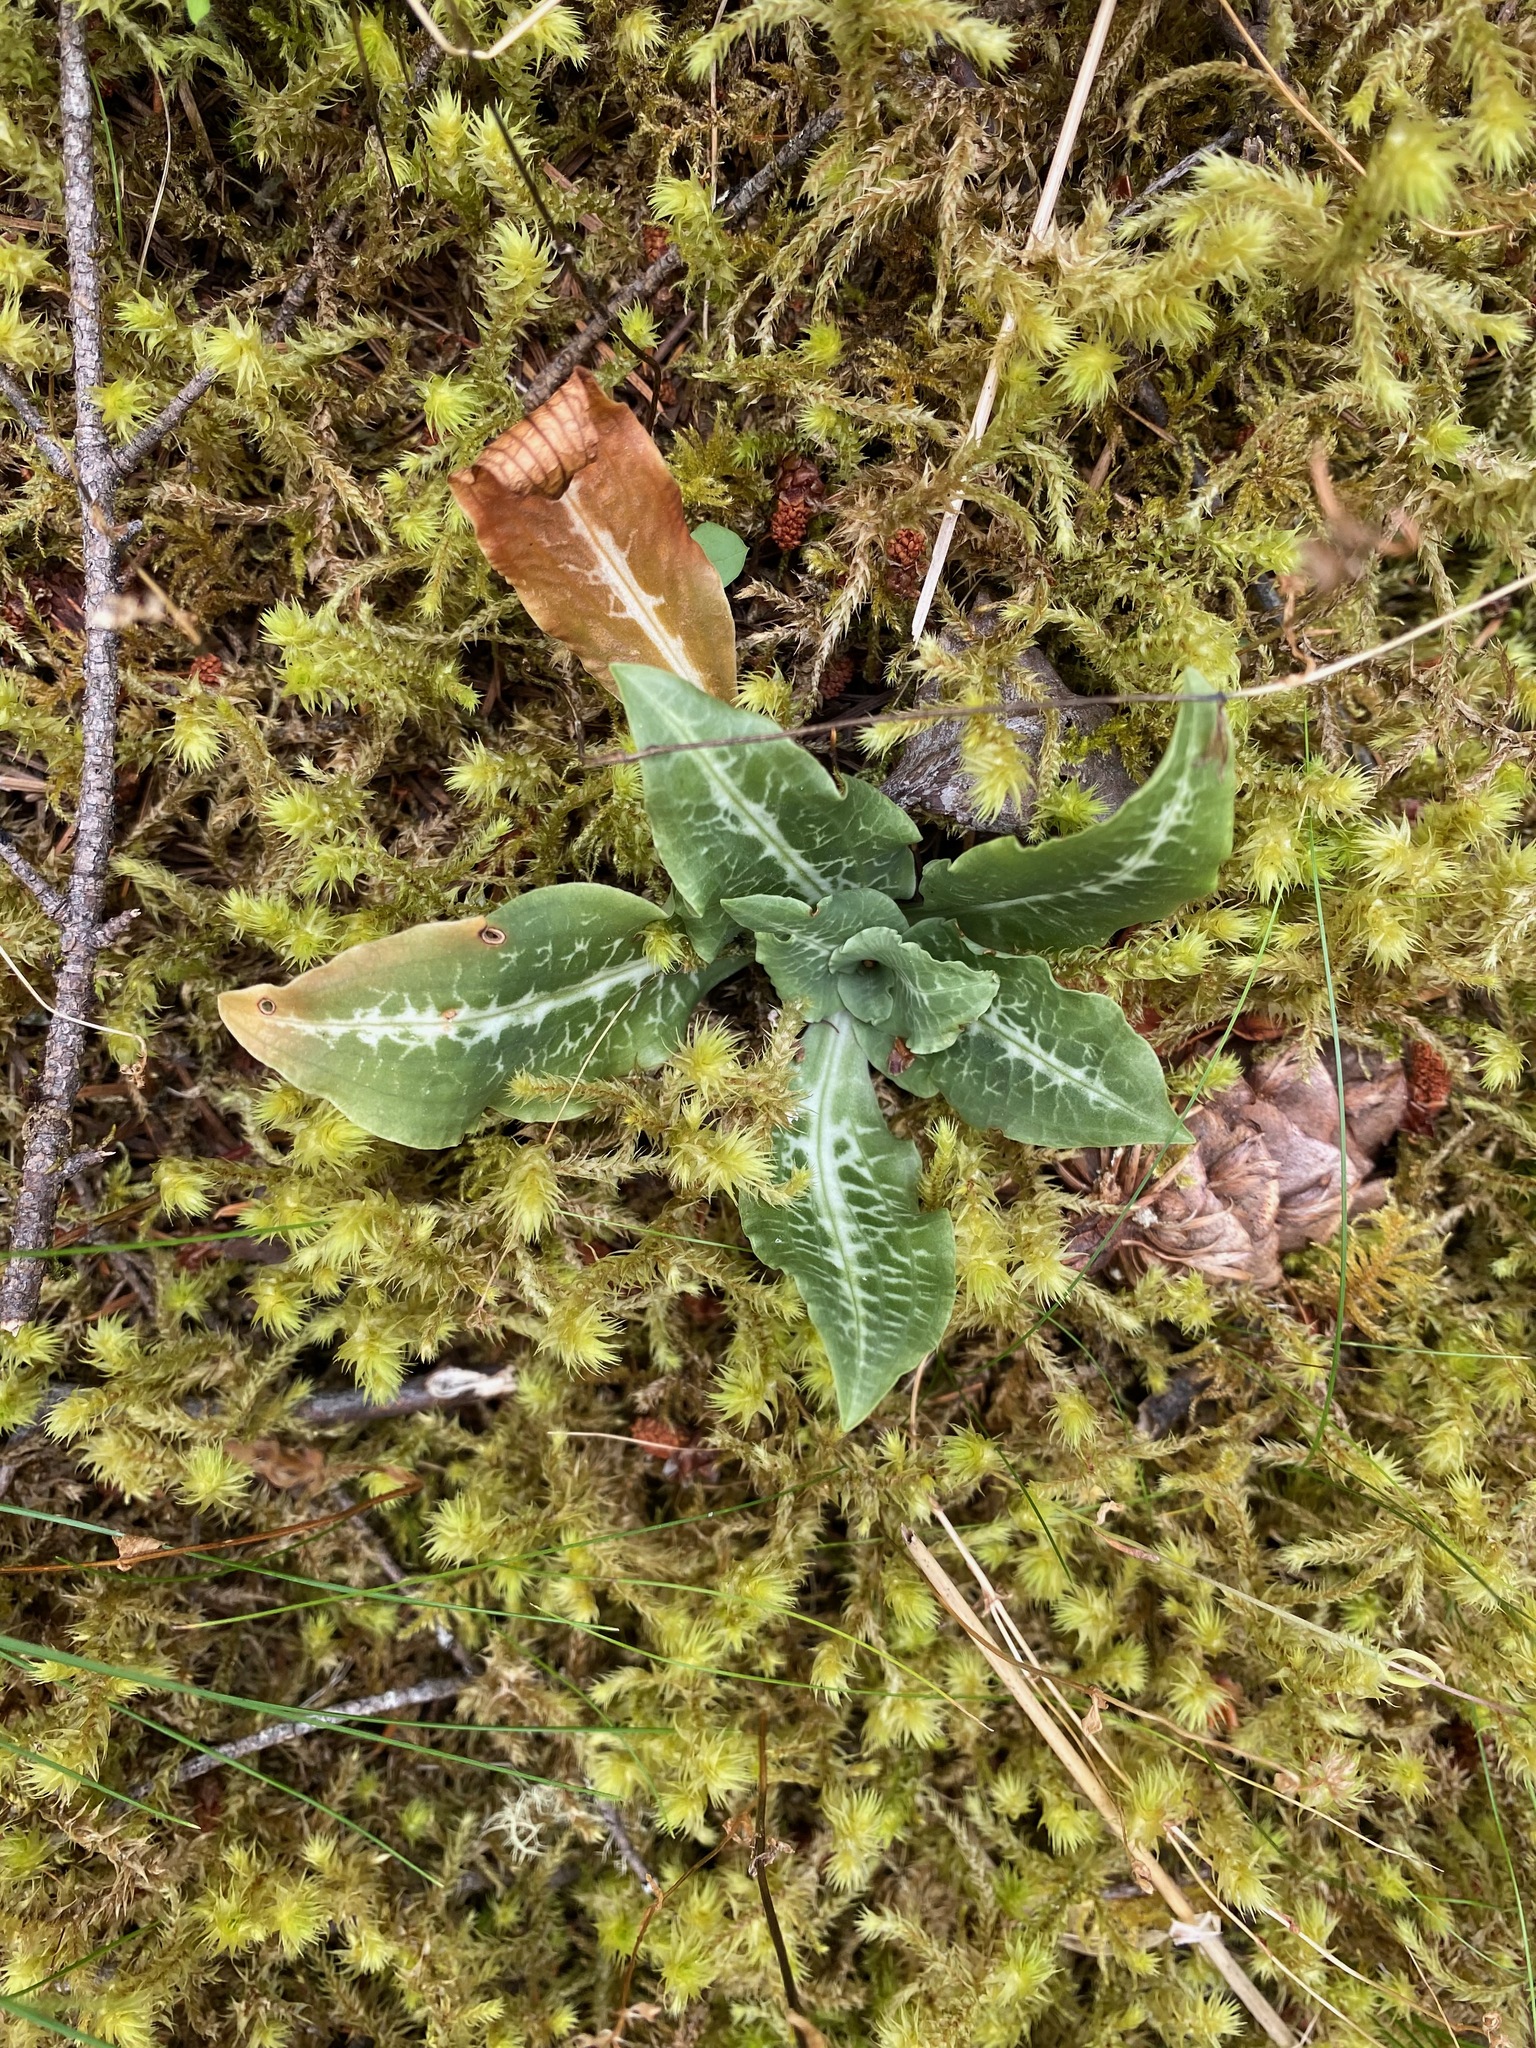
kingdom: Plantae
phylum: Tracheophyta
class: Liliopsida
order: Asparagales
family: Orchidaceae
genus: Goodyera
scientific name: Goodyera oblongifolia
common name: Giant rattlesnake-plantain
